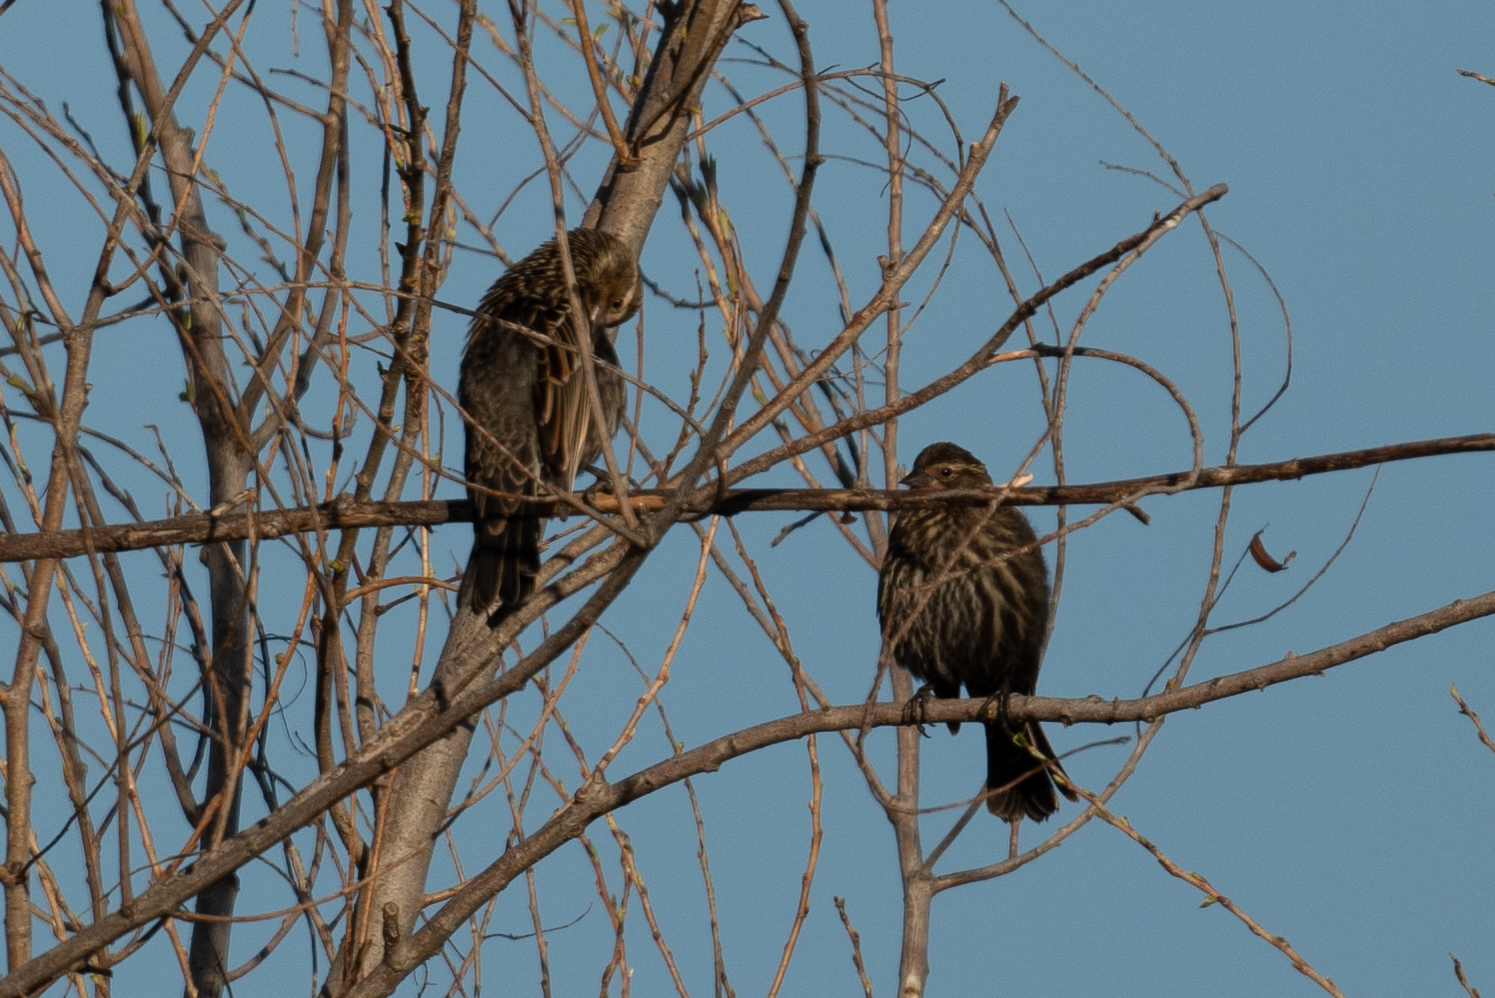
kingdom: Animalia
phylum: Chordata
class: Aves
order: Passeriformes
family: Icteridae
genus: Agelaius
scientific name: Agelaius phoeniceus
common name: Red-winged blackbird
